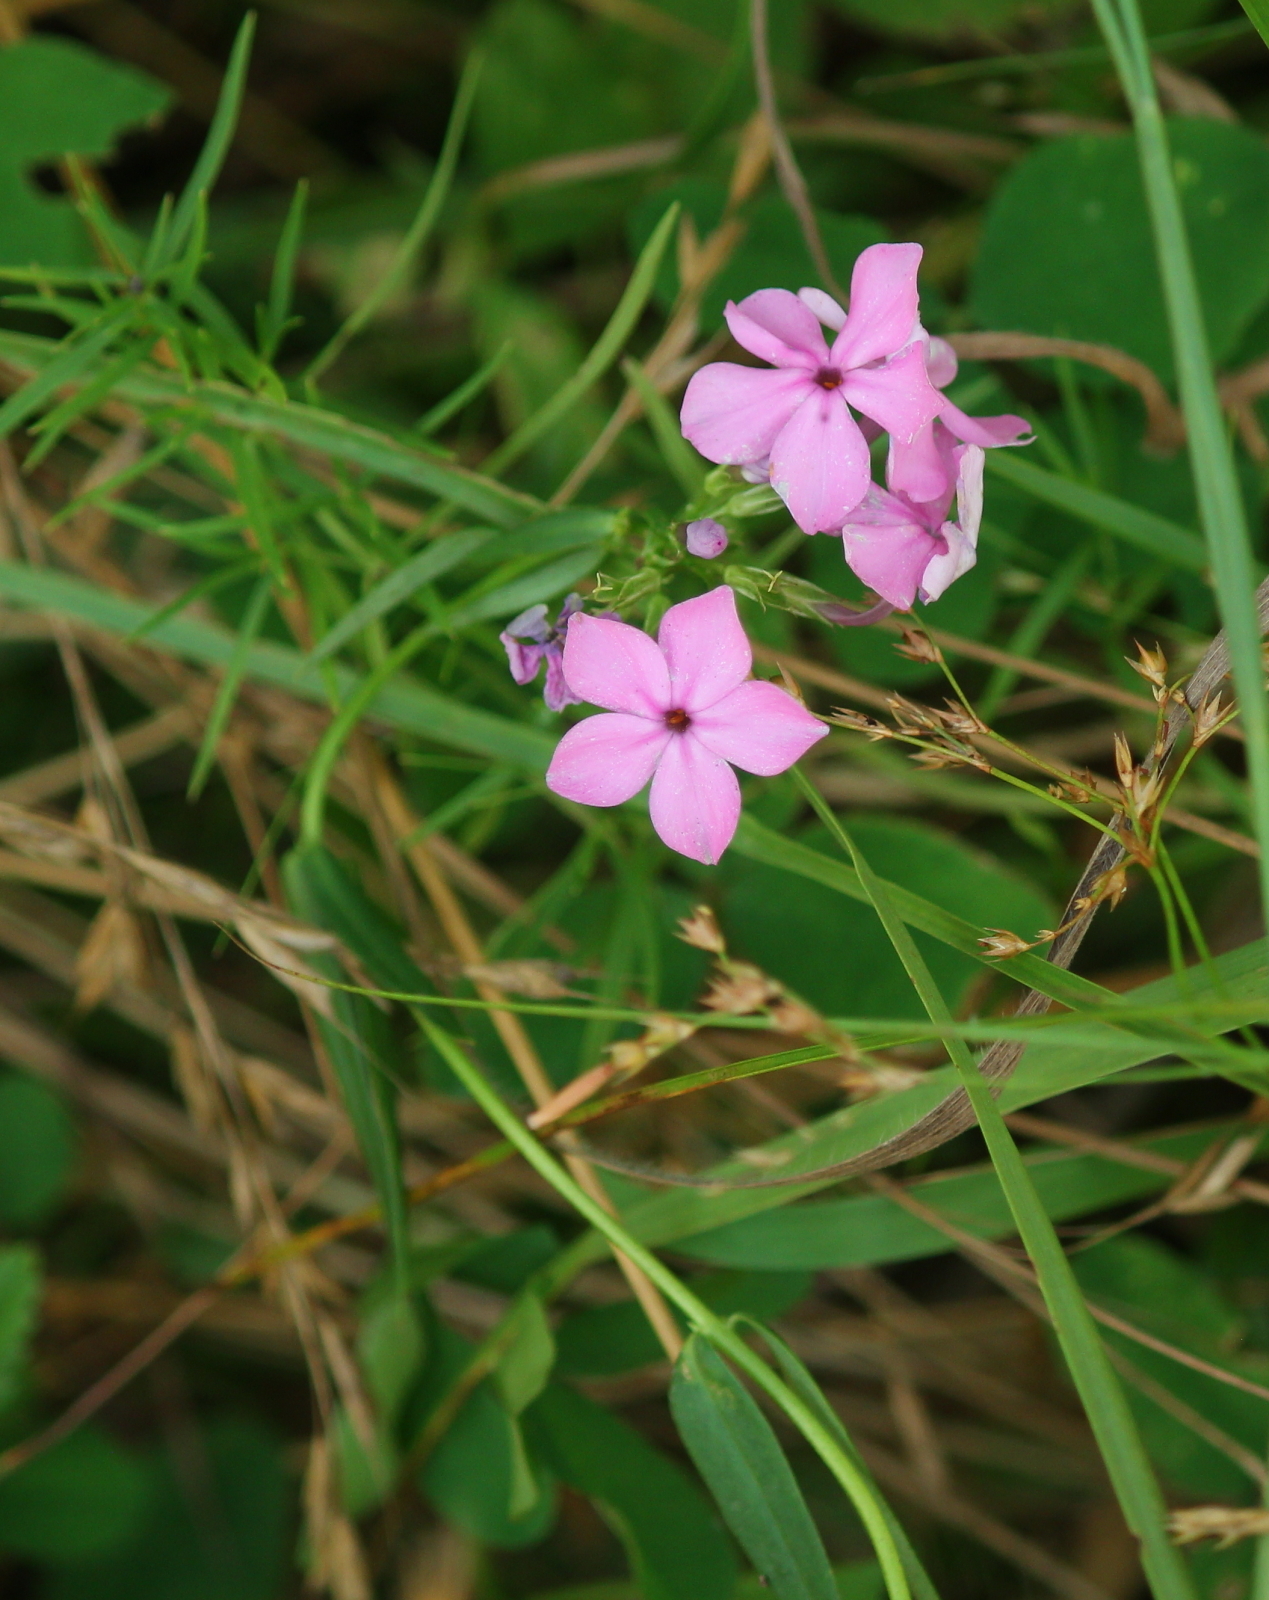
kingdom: Plantae
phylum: Tracheophyta
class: Magnoliopsida
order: Ericales
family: Polemoniaceae
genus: Phlox
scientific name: Phlox glaberrima
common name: Smooth phlox
